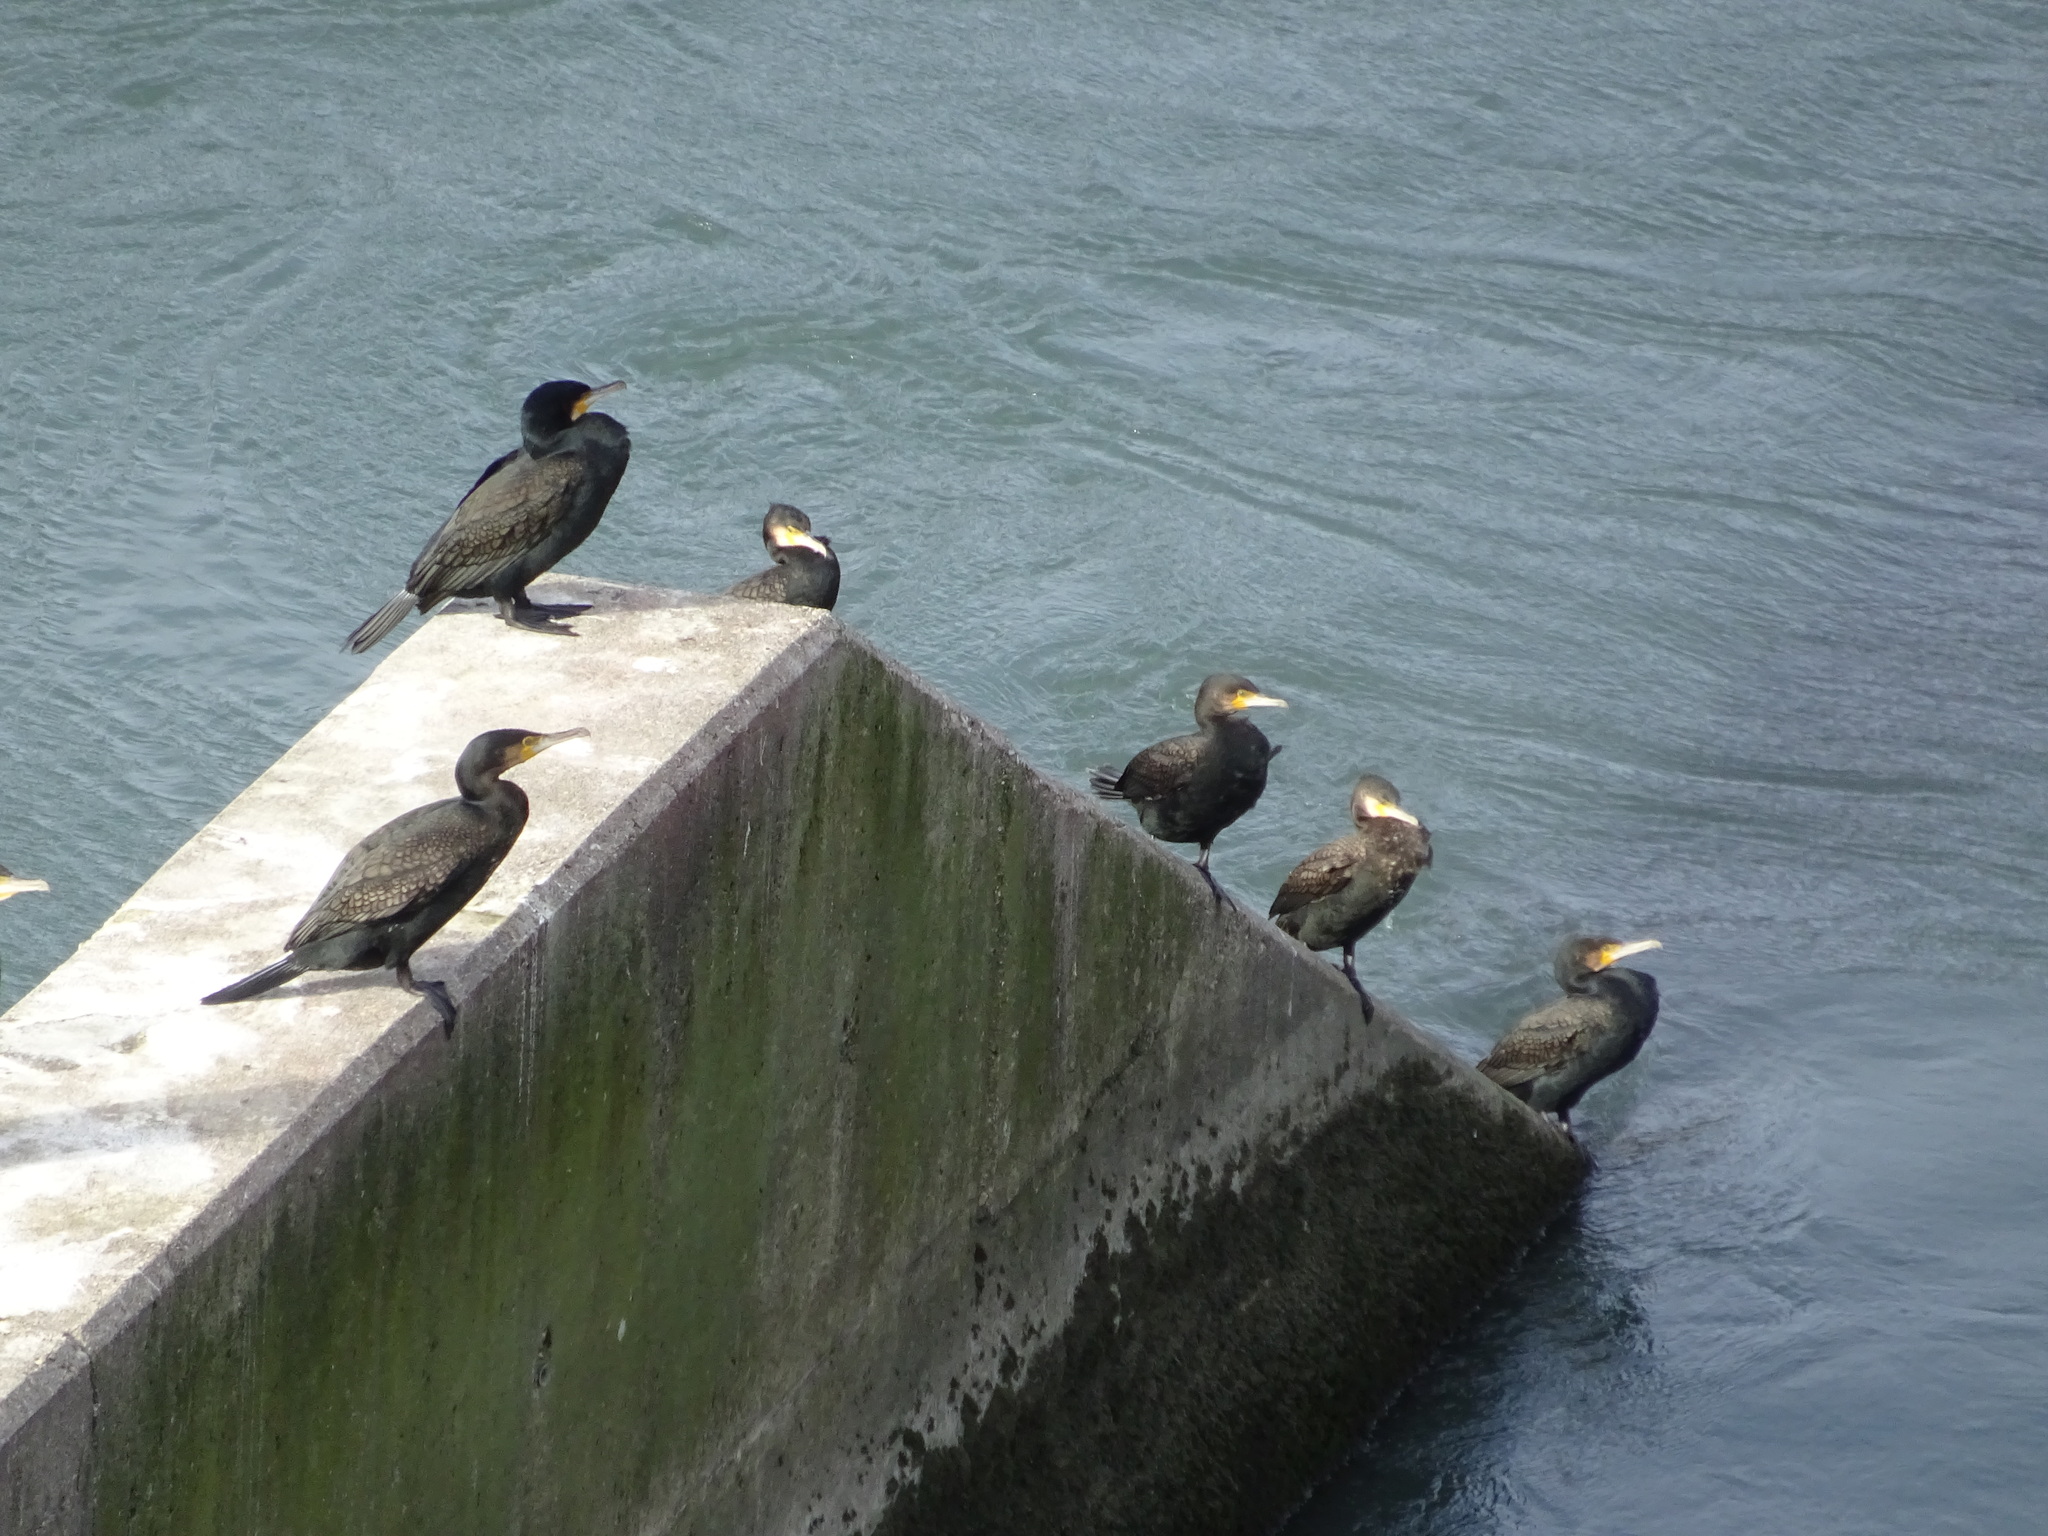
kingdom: Animalia
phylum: Chordata
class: Aves
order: Suliformes
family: Phalacrocoracidae
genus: Phalacrocorax
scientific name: Phalacrocorax carbo
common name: Great cormorant
